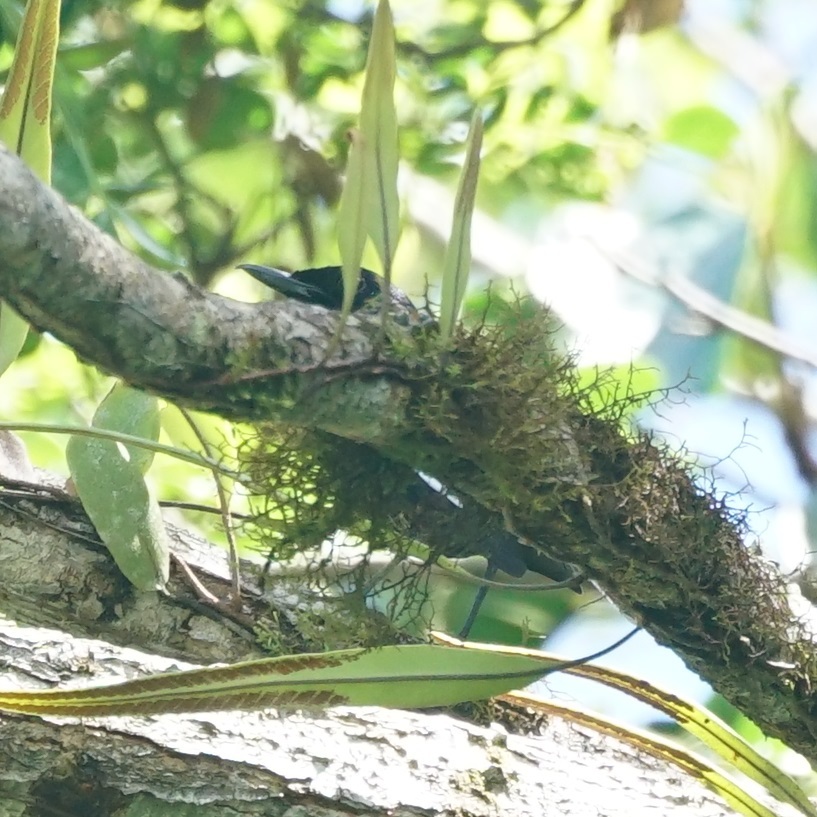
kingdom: Animalia
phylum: Chordata
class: Aves
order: Passeriformes
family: Muscicapidae
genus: Copsychus
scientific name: Copsychus saularis
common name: Oriental magpie-robin
